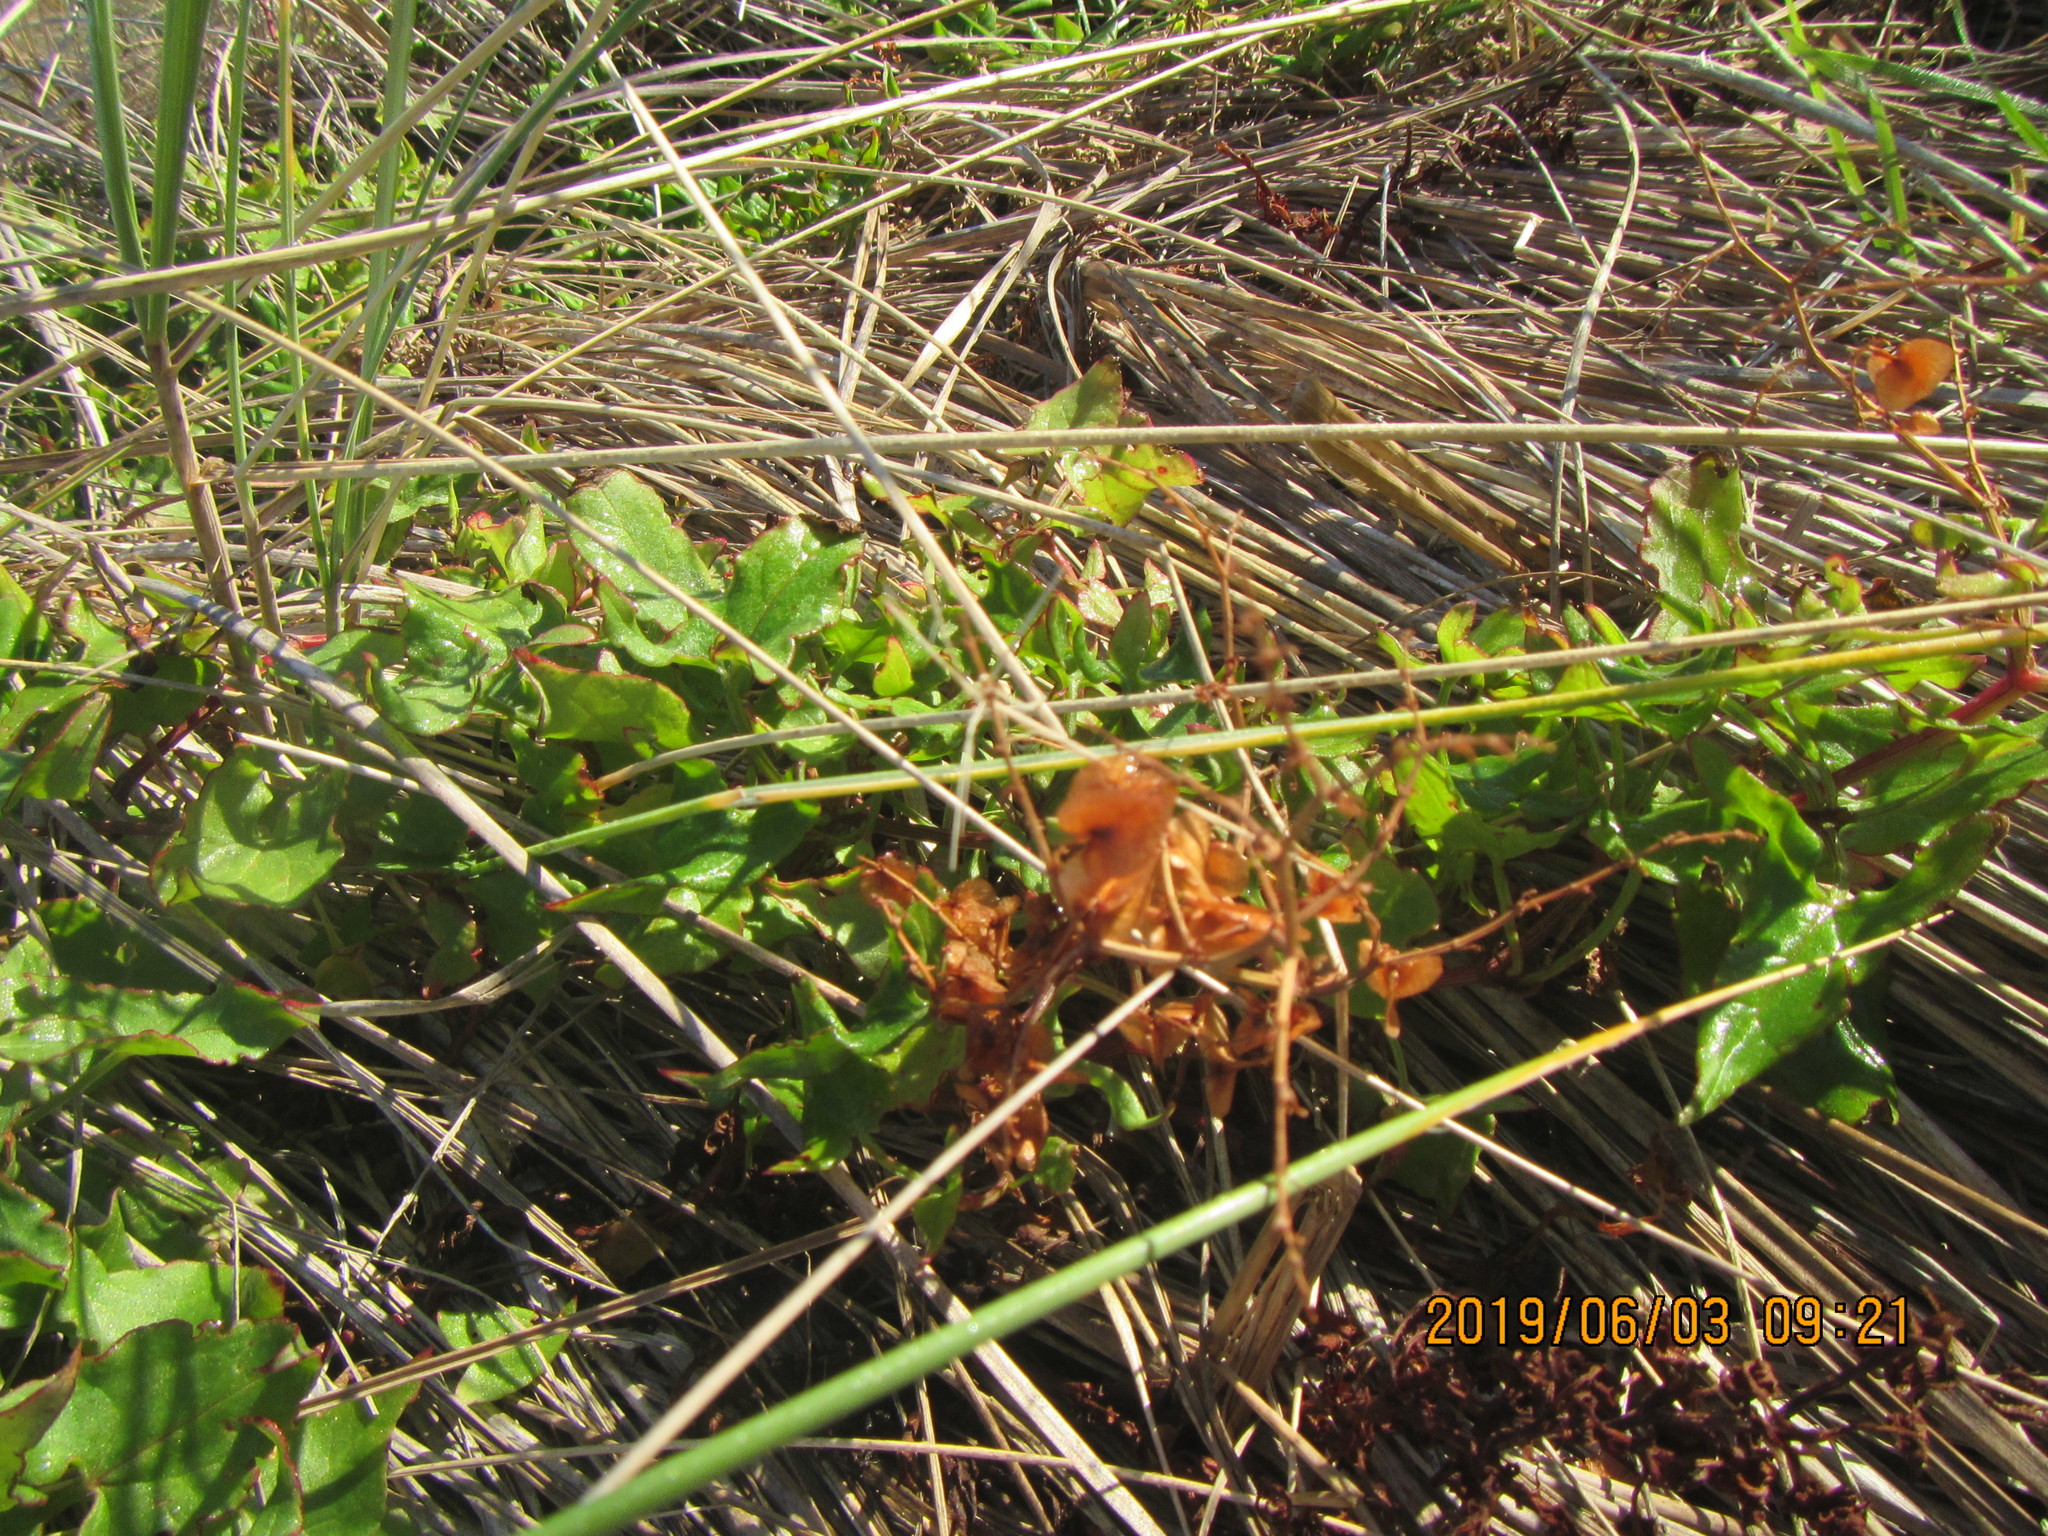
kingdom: Plantae
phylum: Tracheophyta
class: Magnoliopsida
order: Caryophyllales
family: Polygonaceae
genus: Rumex
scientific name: Rumex sagittatus
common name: Climbing dock
